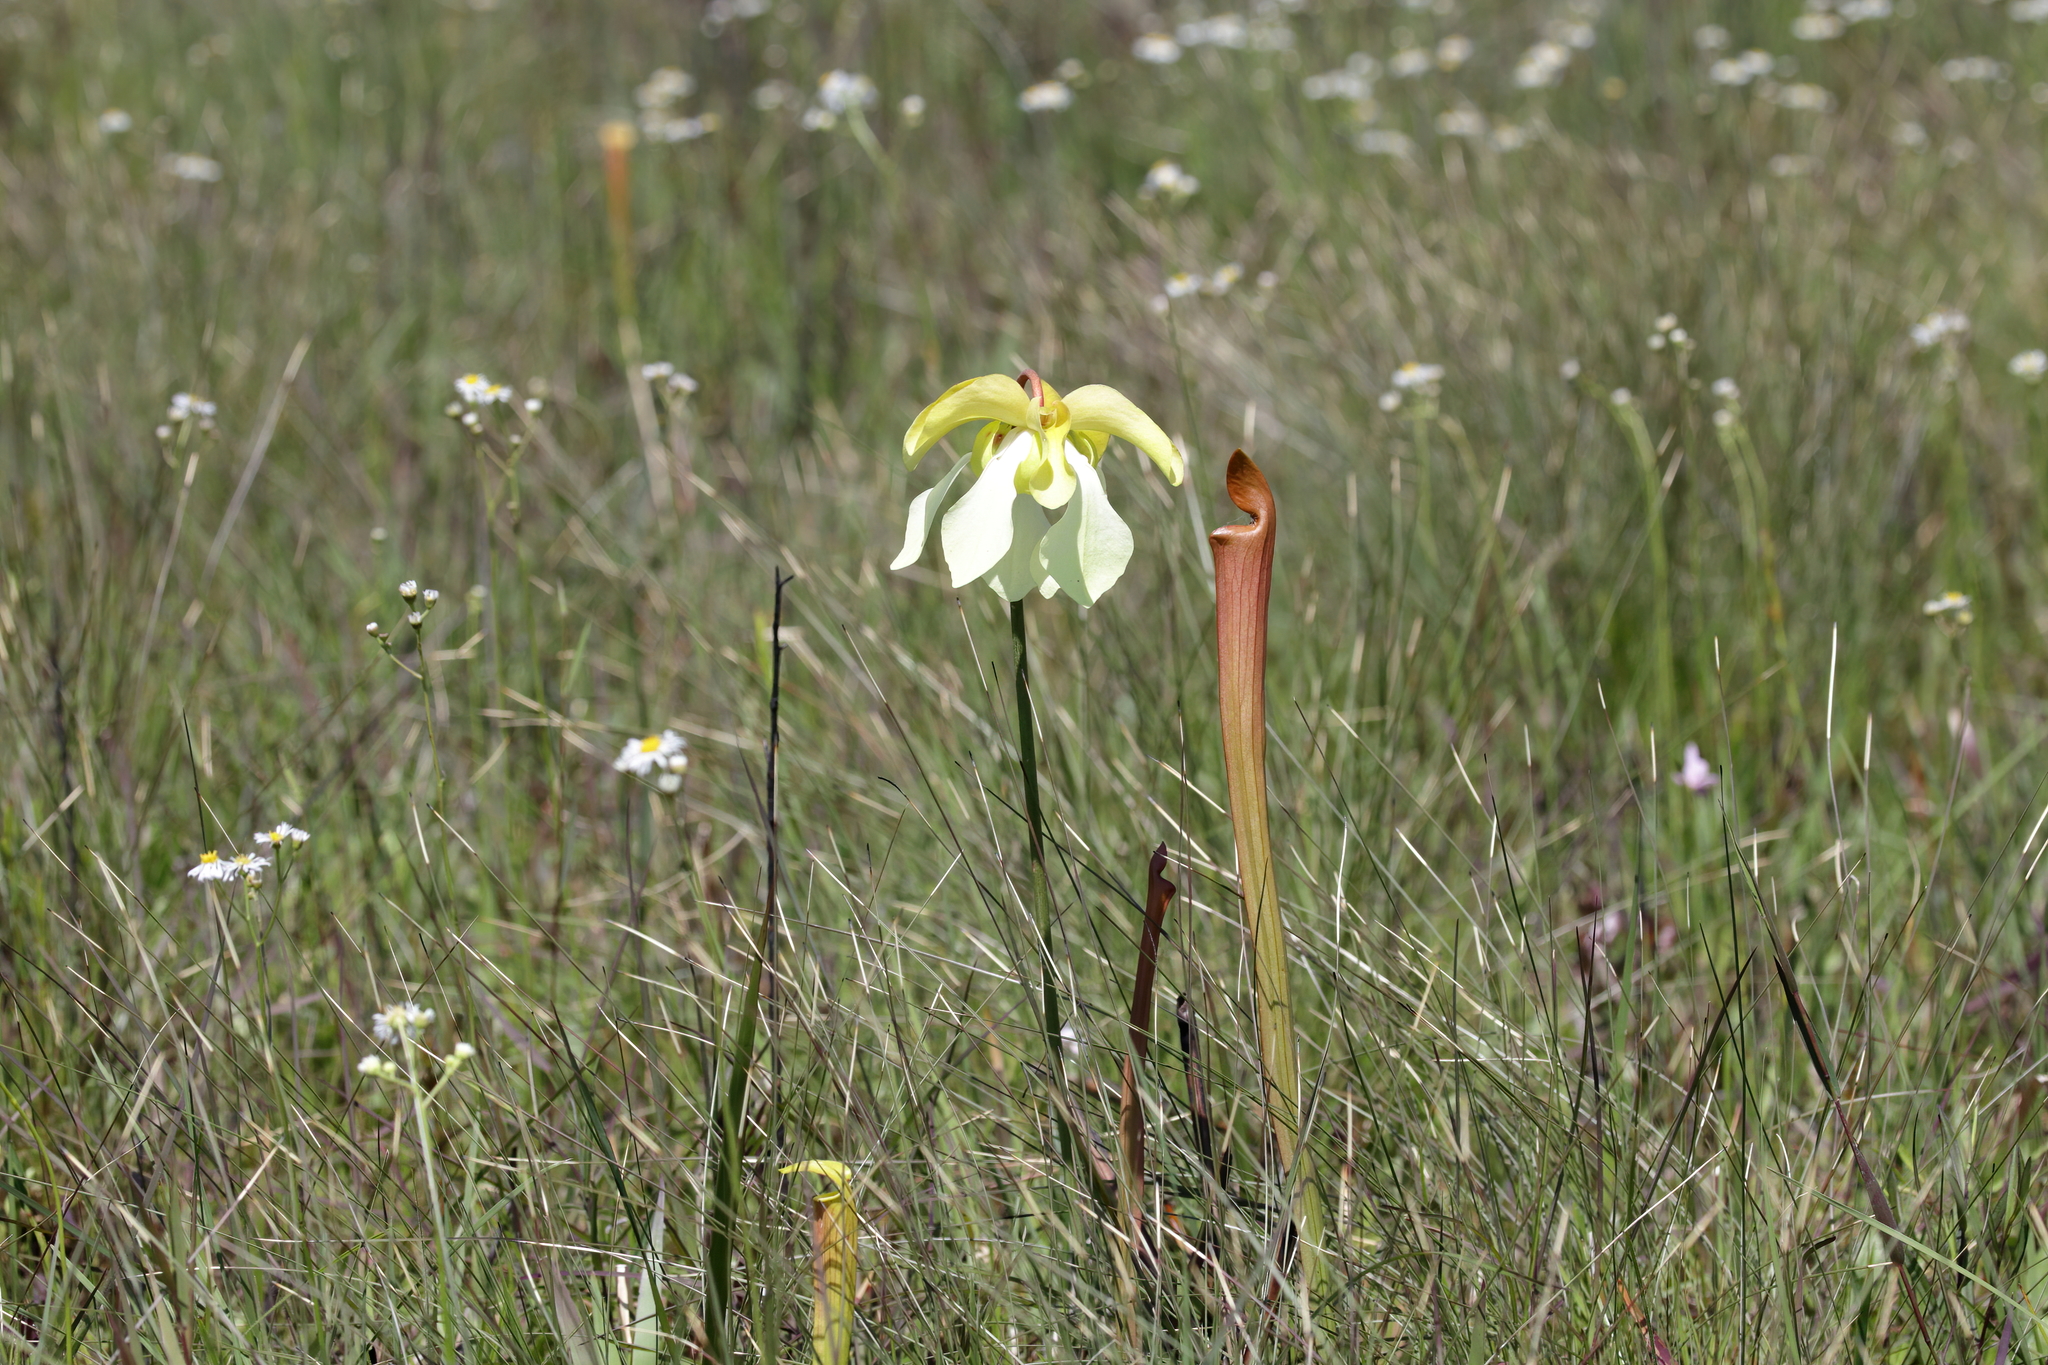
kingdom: Plantae
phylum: Tracheophyta
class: Magnoliopsida
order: Ericales
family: Sarraceniaceae
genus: Sarracenia
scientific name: Sarracenia alata
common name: Yellow trumpets
